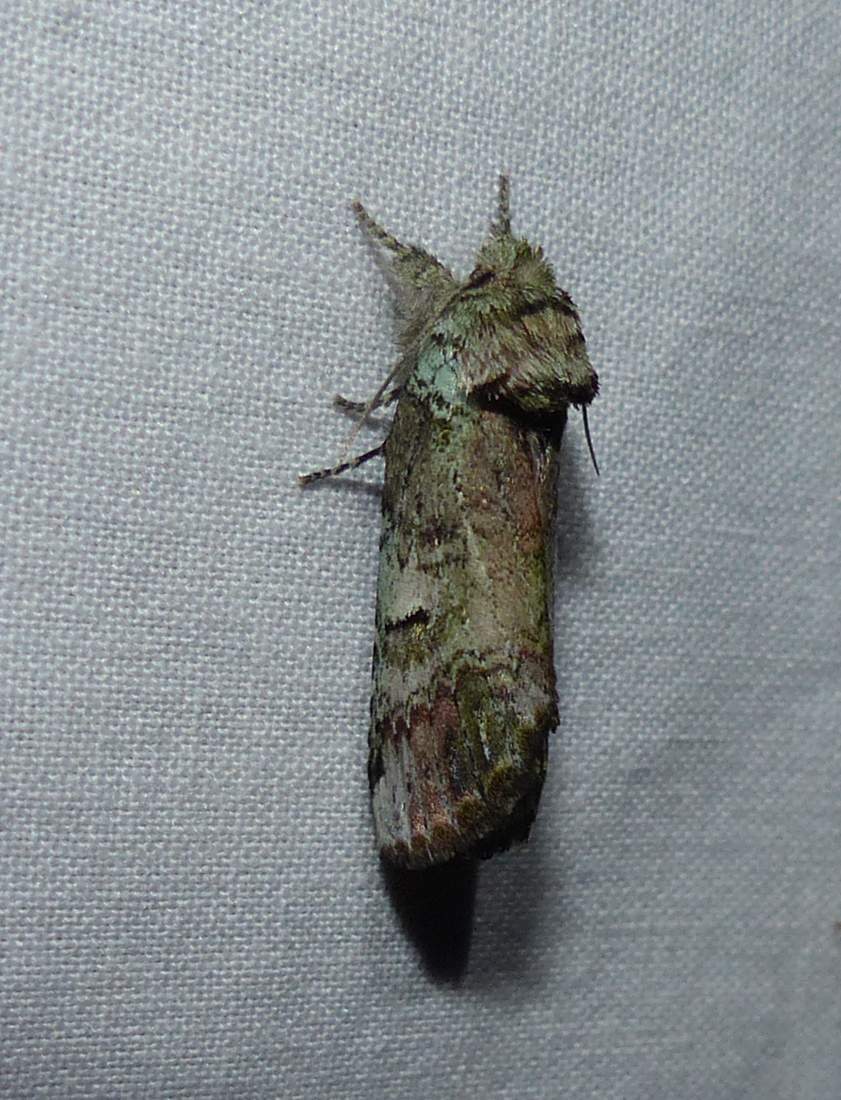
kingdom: Animalia
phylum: Arthropoda
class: Insecta
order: Lepidoptera
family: Notodontidae
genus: Schizura
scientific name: Schizura
